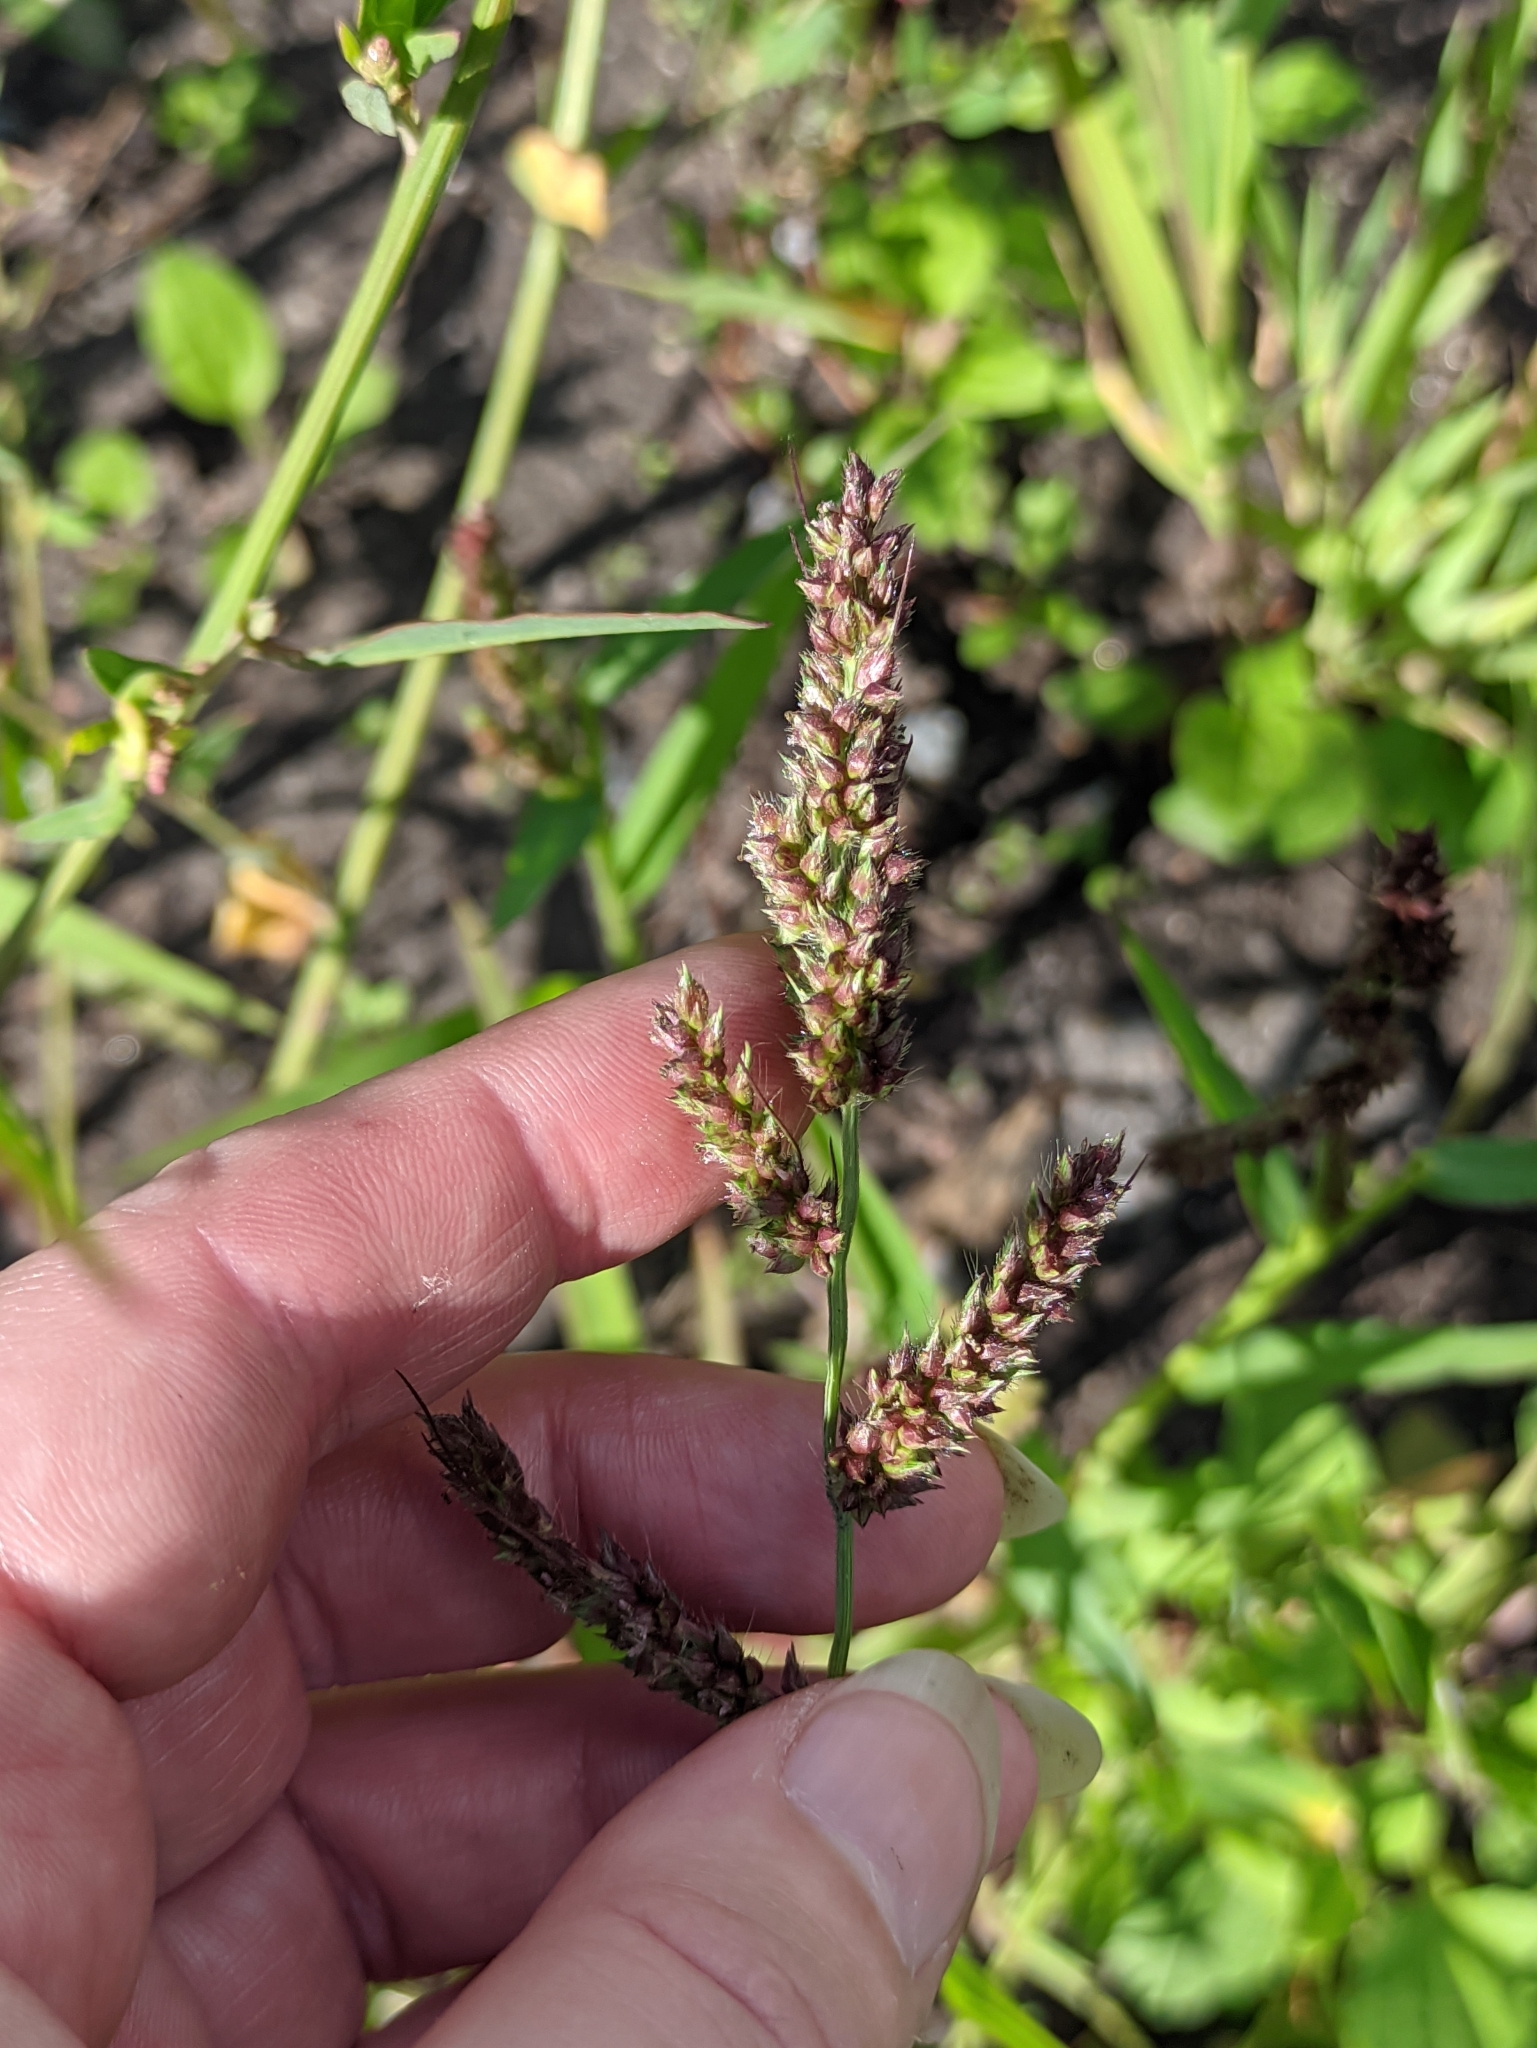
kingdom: Plantae
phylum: Tracheophyta
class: Liliopsida
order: Poales
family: Poaceae
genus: Echinochloa
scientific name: Echinochloa crus-galli
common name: Cockspur
